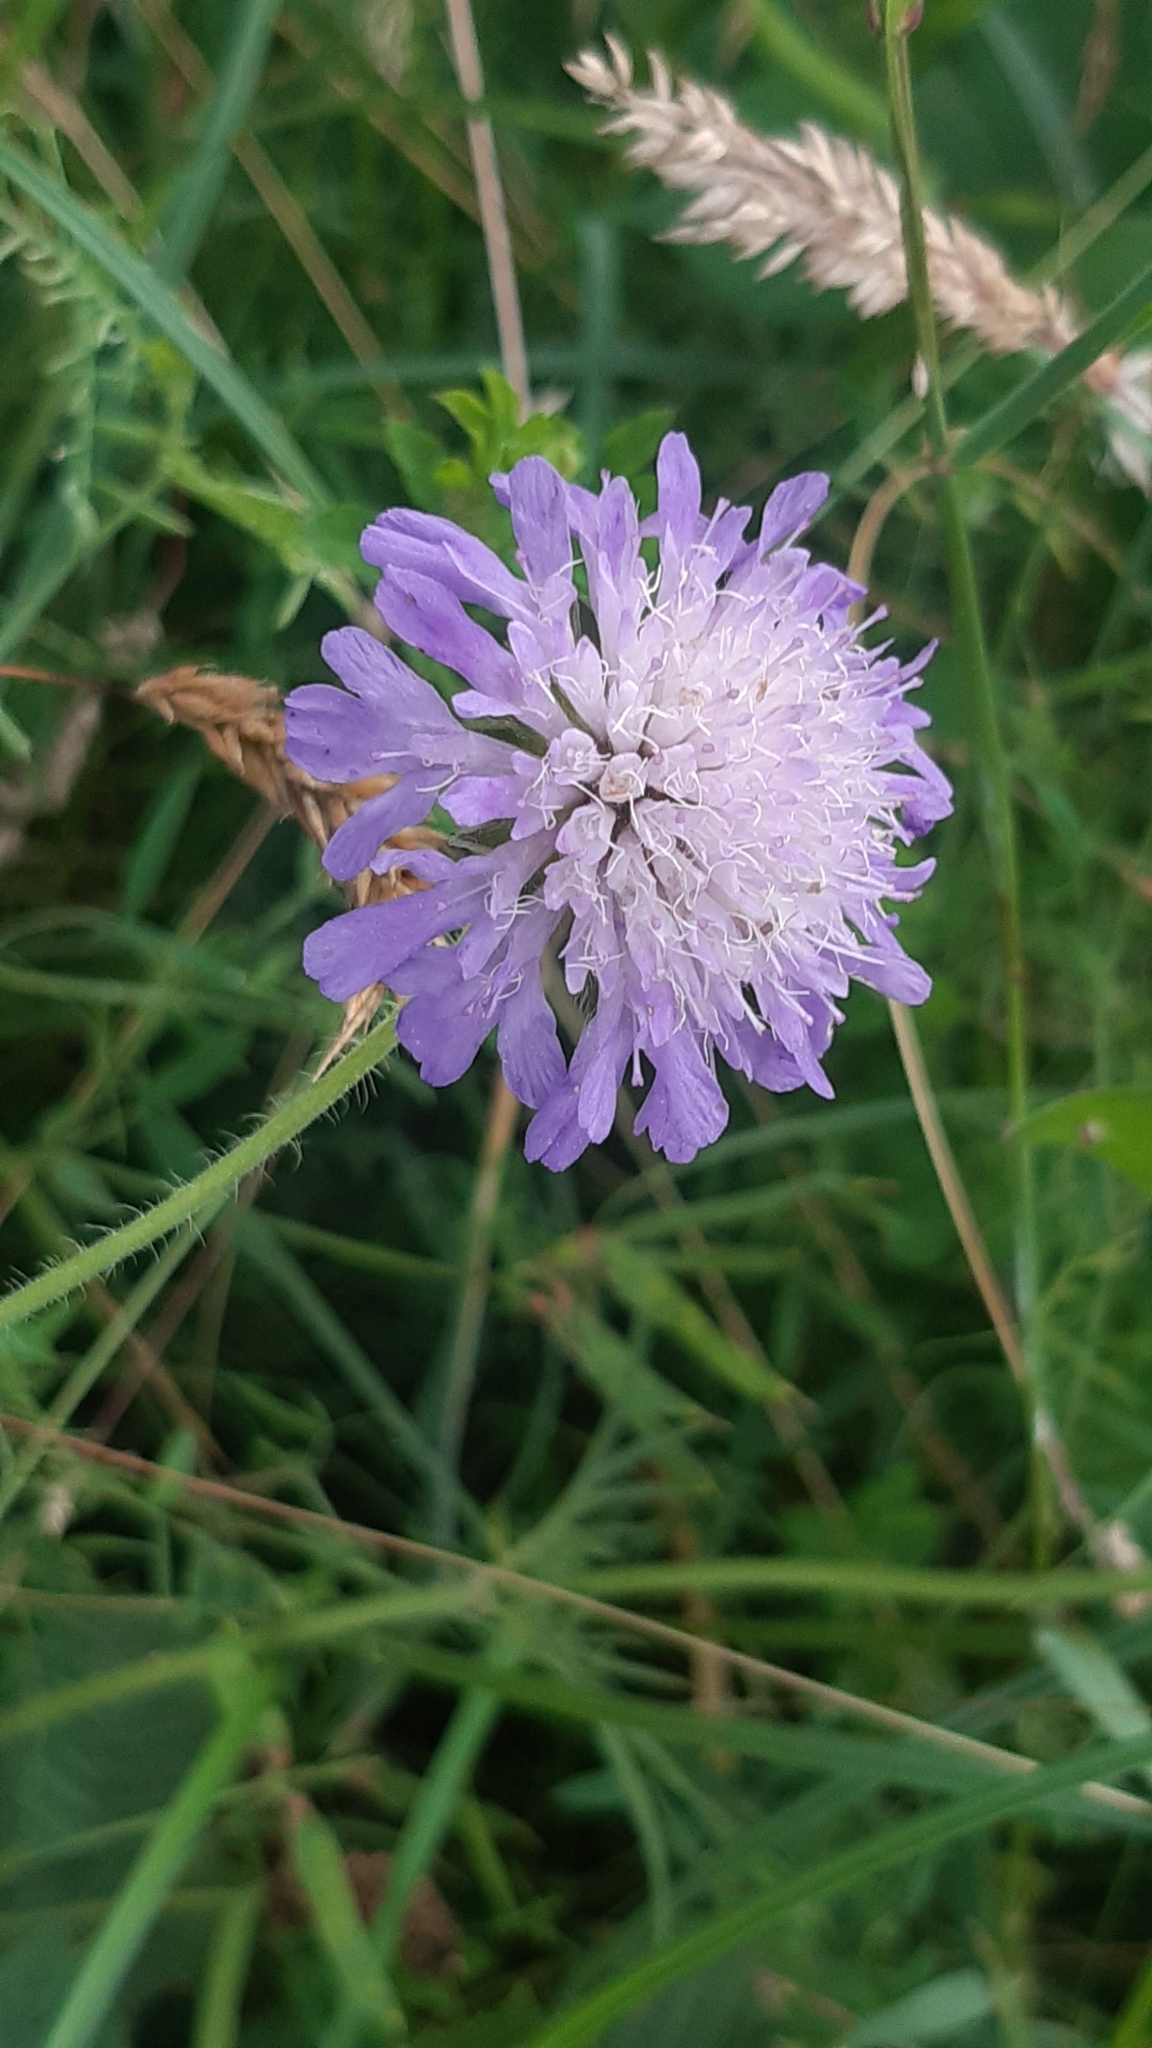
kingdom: Plantae
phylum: Tracheophyta
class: Magnoliopsida
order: Dipsacales
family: Caprifoliaceae
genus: Knautia
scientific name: Knautia arvensis
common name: Field scabiosa
